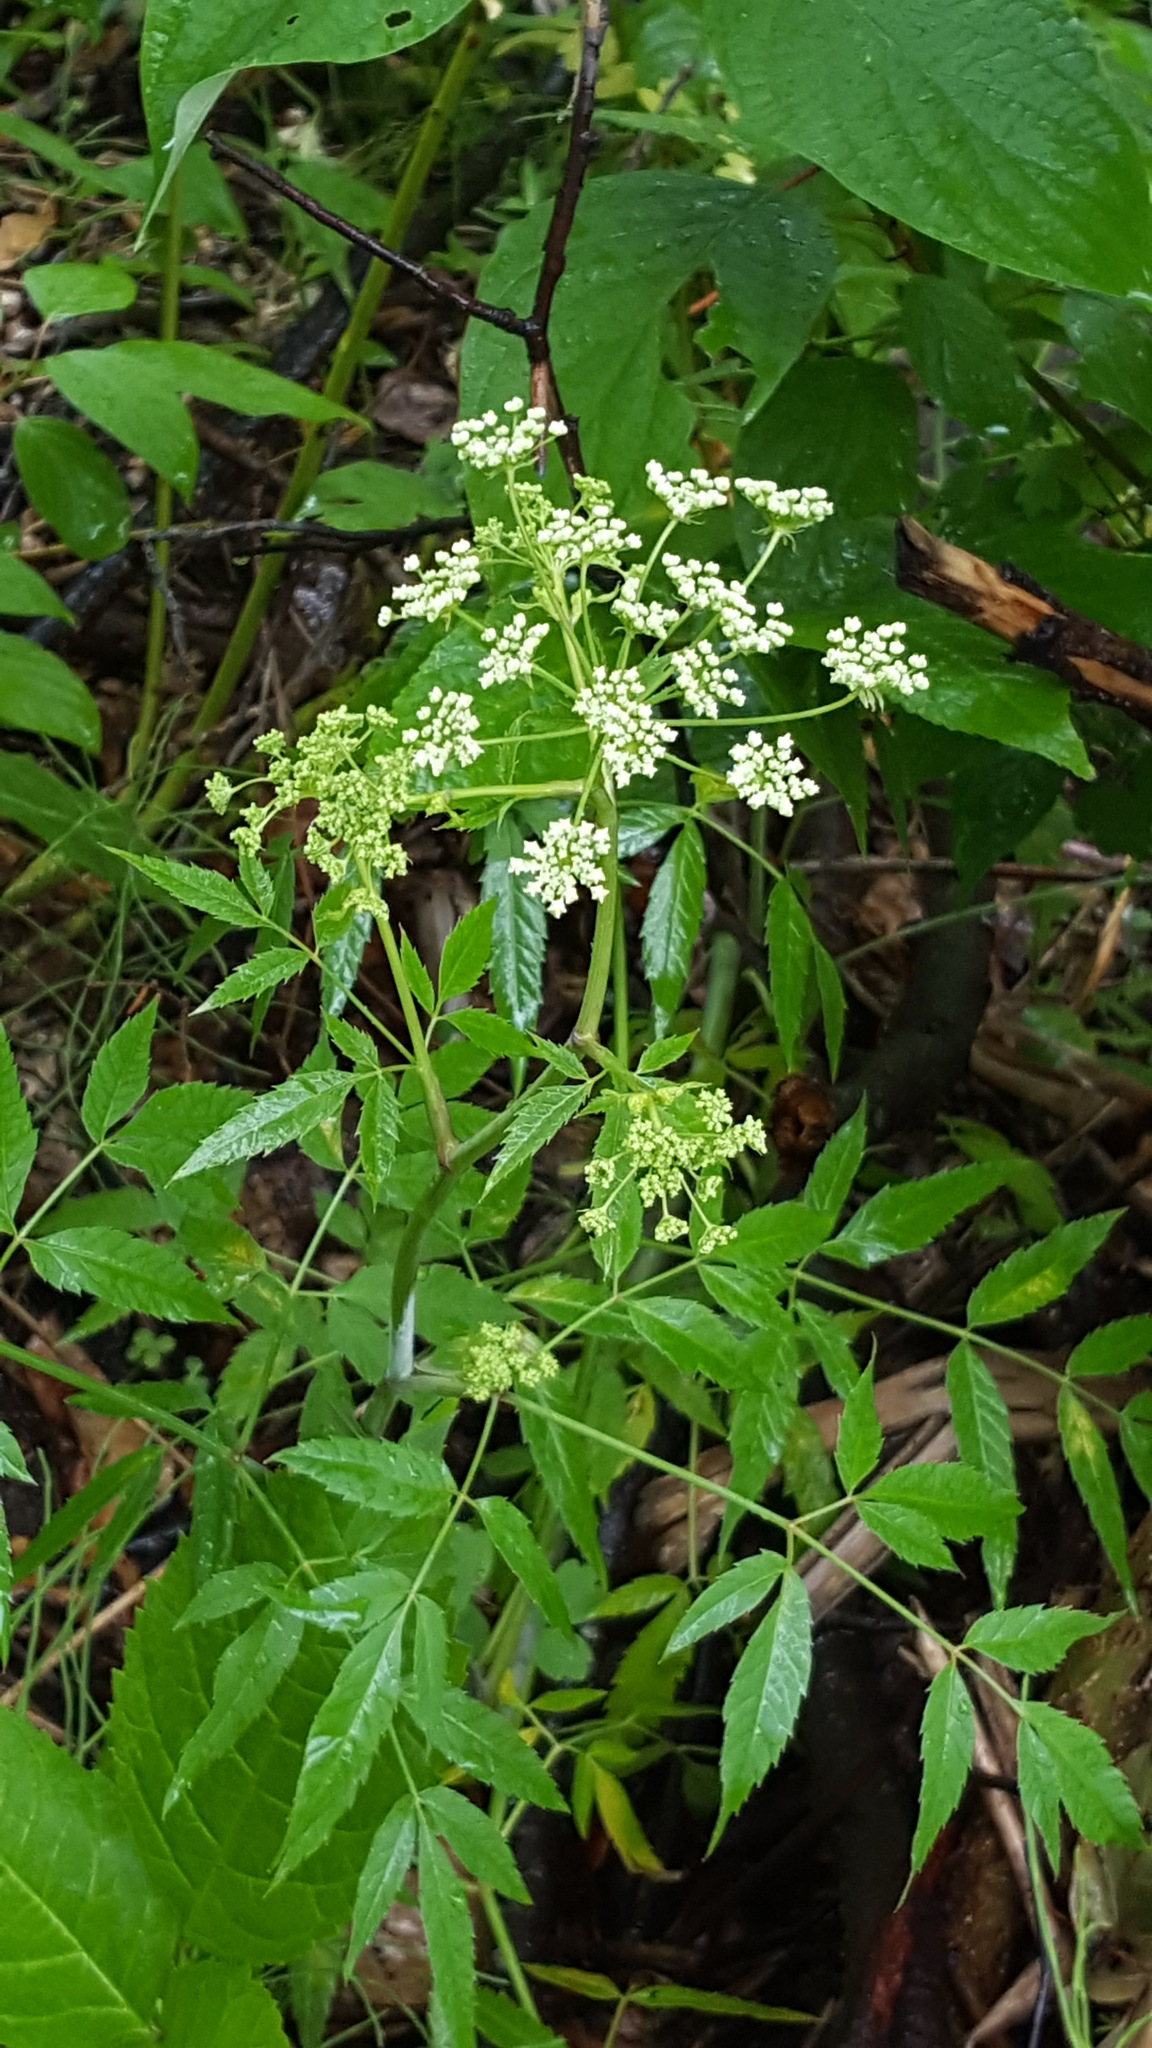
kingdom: Plantae
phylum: Tracheophyta
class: Magnoliopsida
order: Apiales
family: Apiaceae
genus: Cicuta
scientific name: Cicuta maculata
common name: Spotted cowbane
